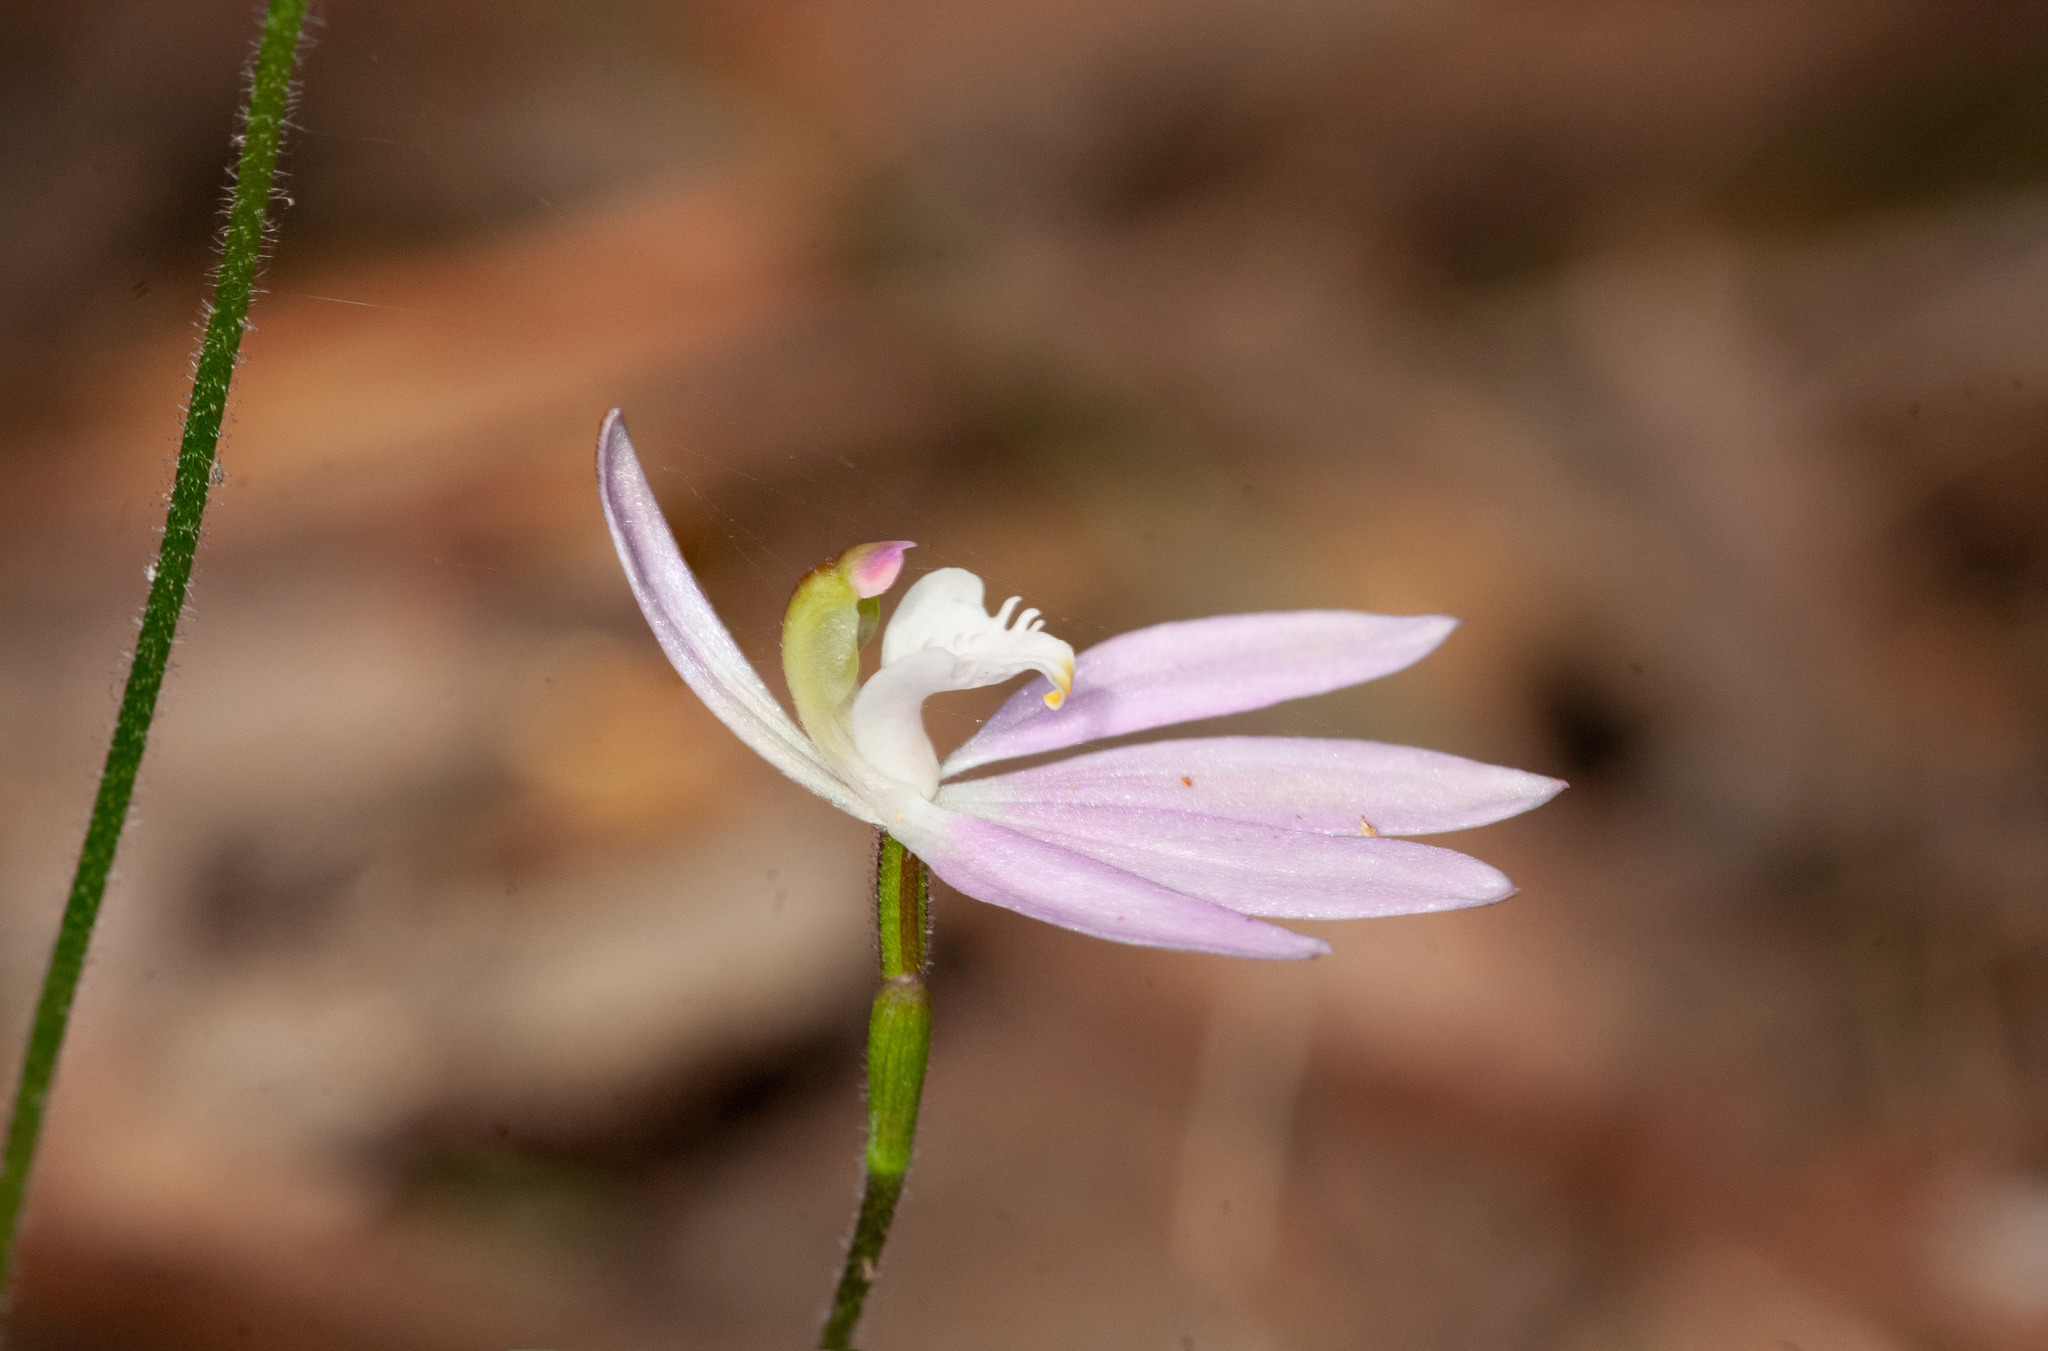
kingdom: Plantae
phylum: Tracheophyta
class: Liliopsida
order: Asparagales
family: Orchidaceae
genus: Caladenia
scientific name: Caladenia catenata
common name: White caladenia
